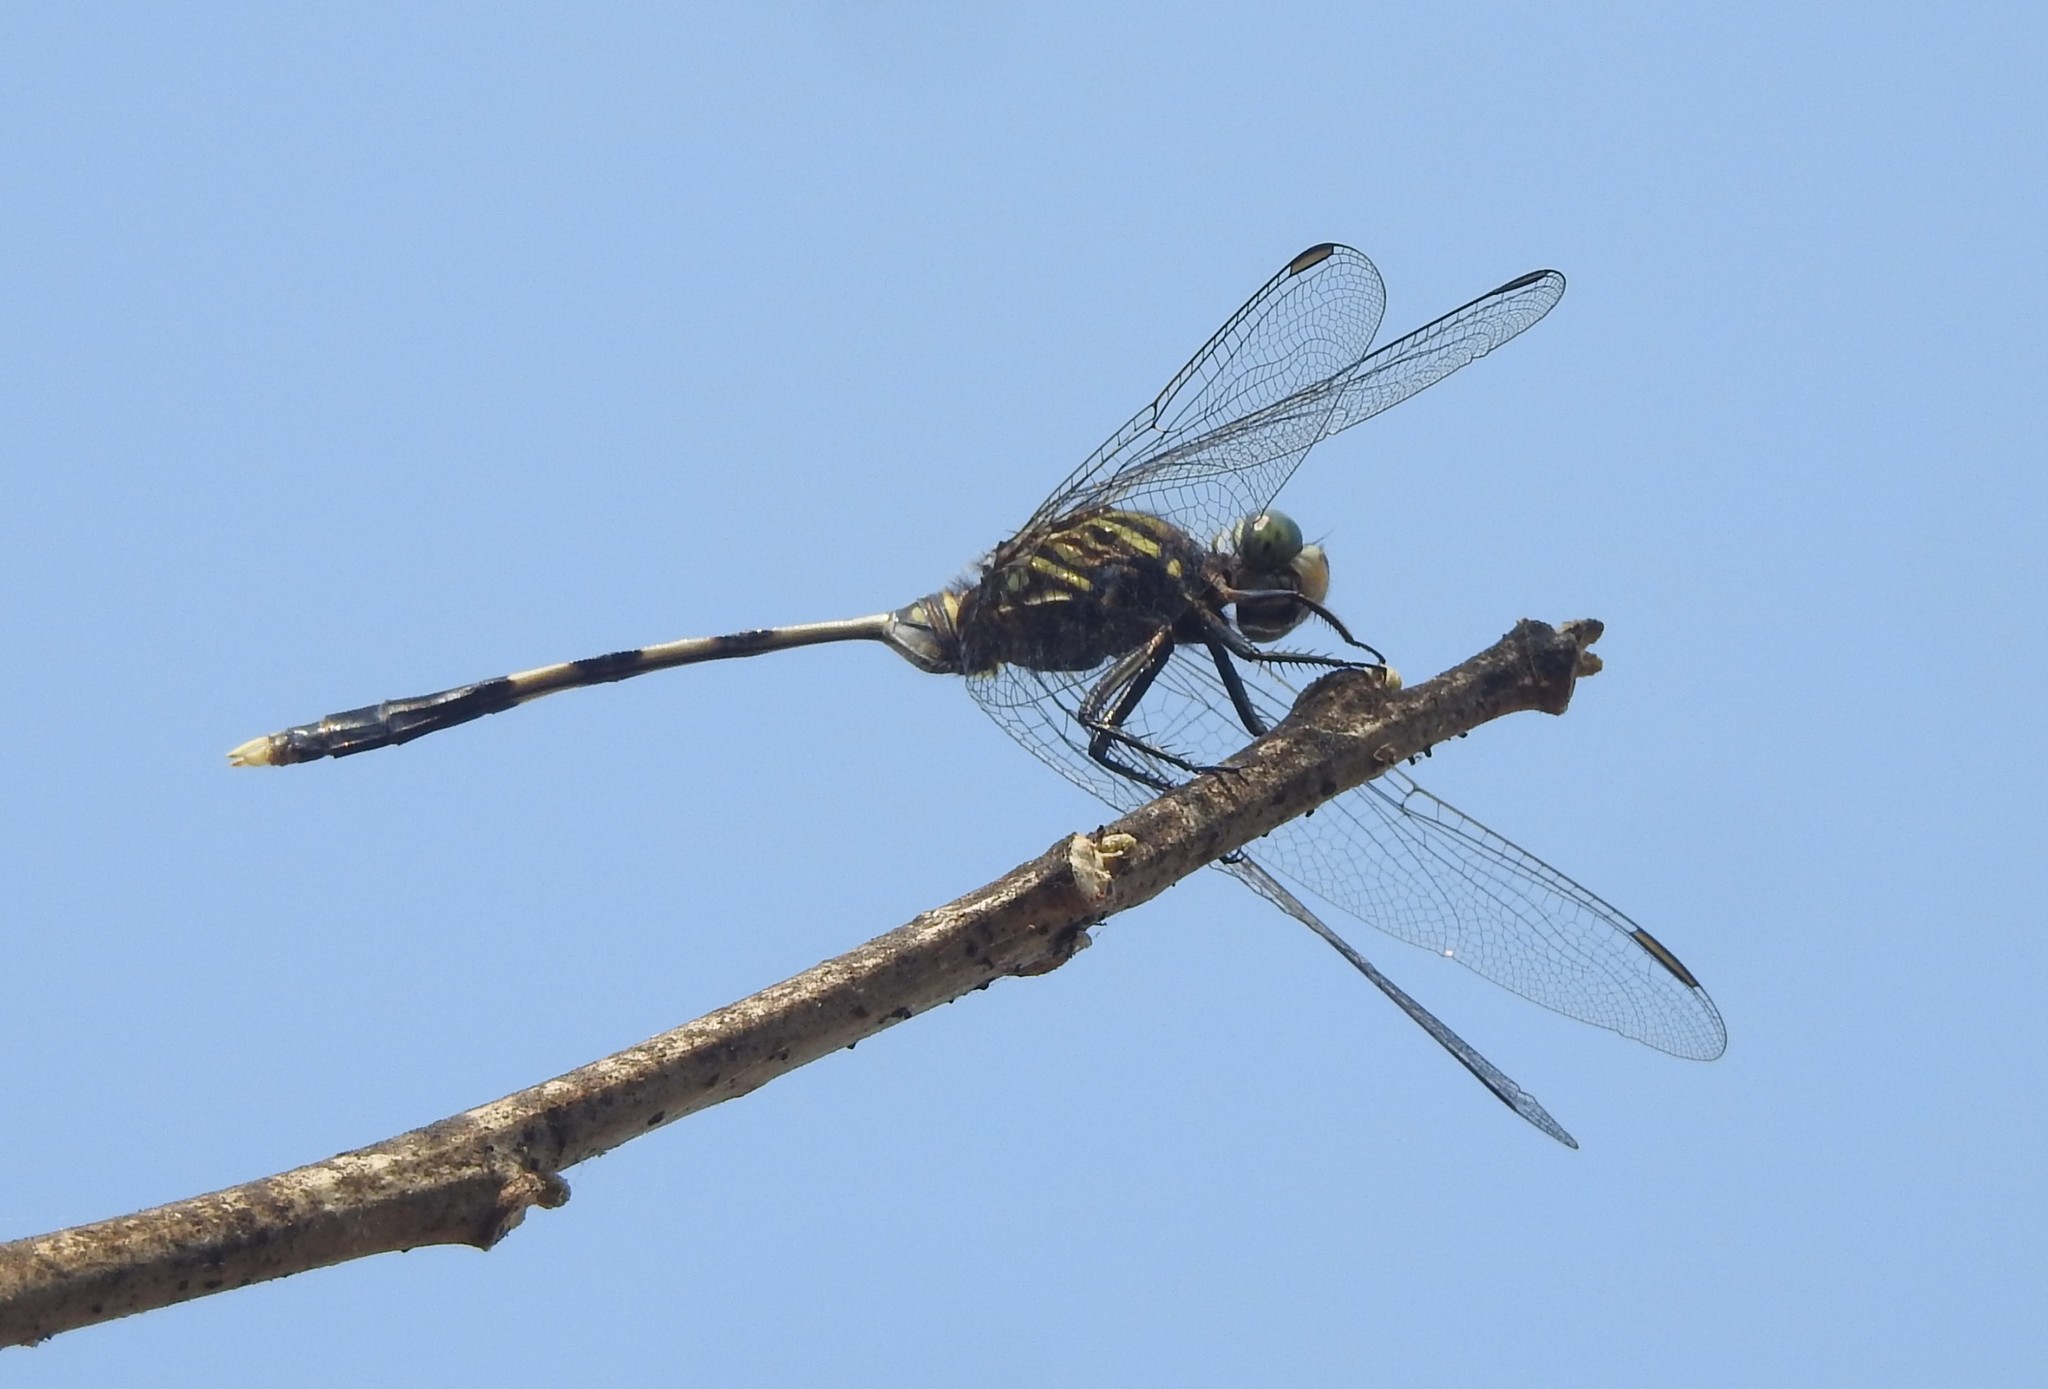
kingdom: Animalia
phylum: Arthropoda
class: Insecta
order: Odonata
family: Libellulidae
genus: Orthetrum
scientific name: Orthetrum sabina
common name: Slender skimmer
